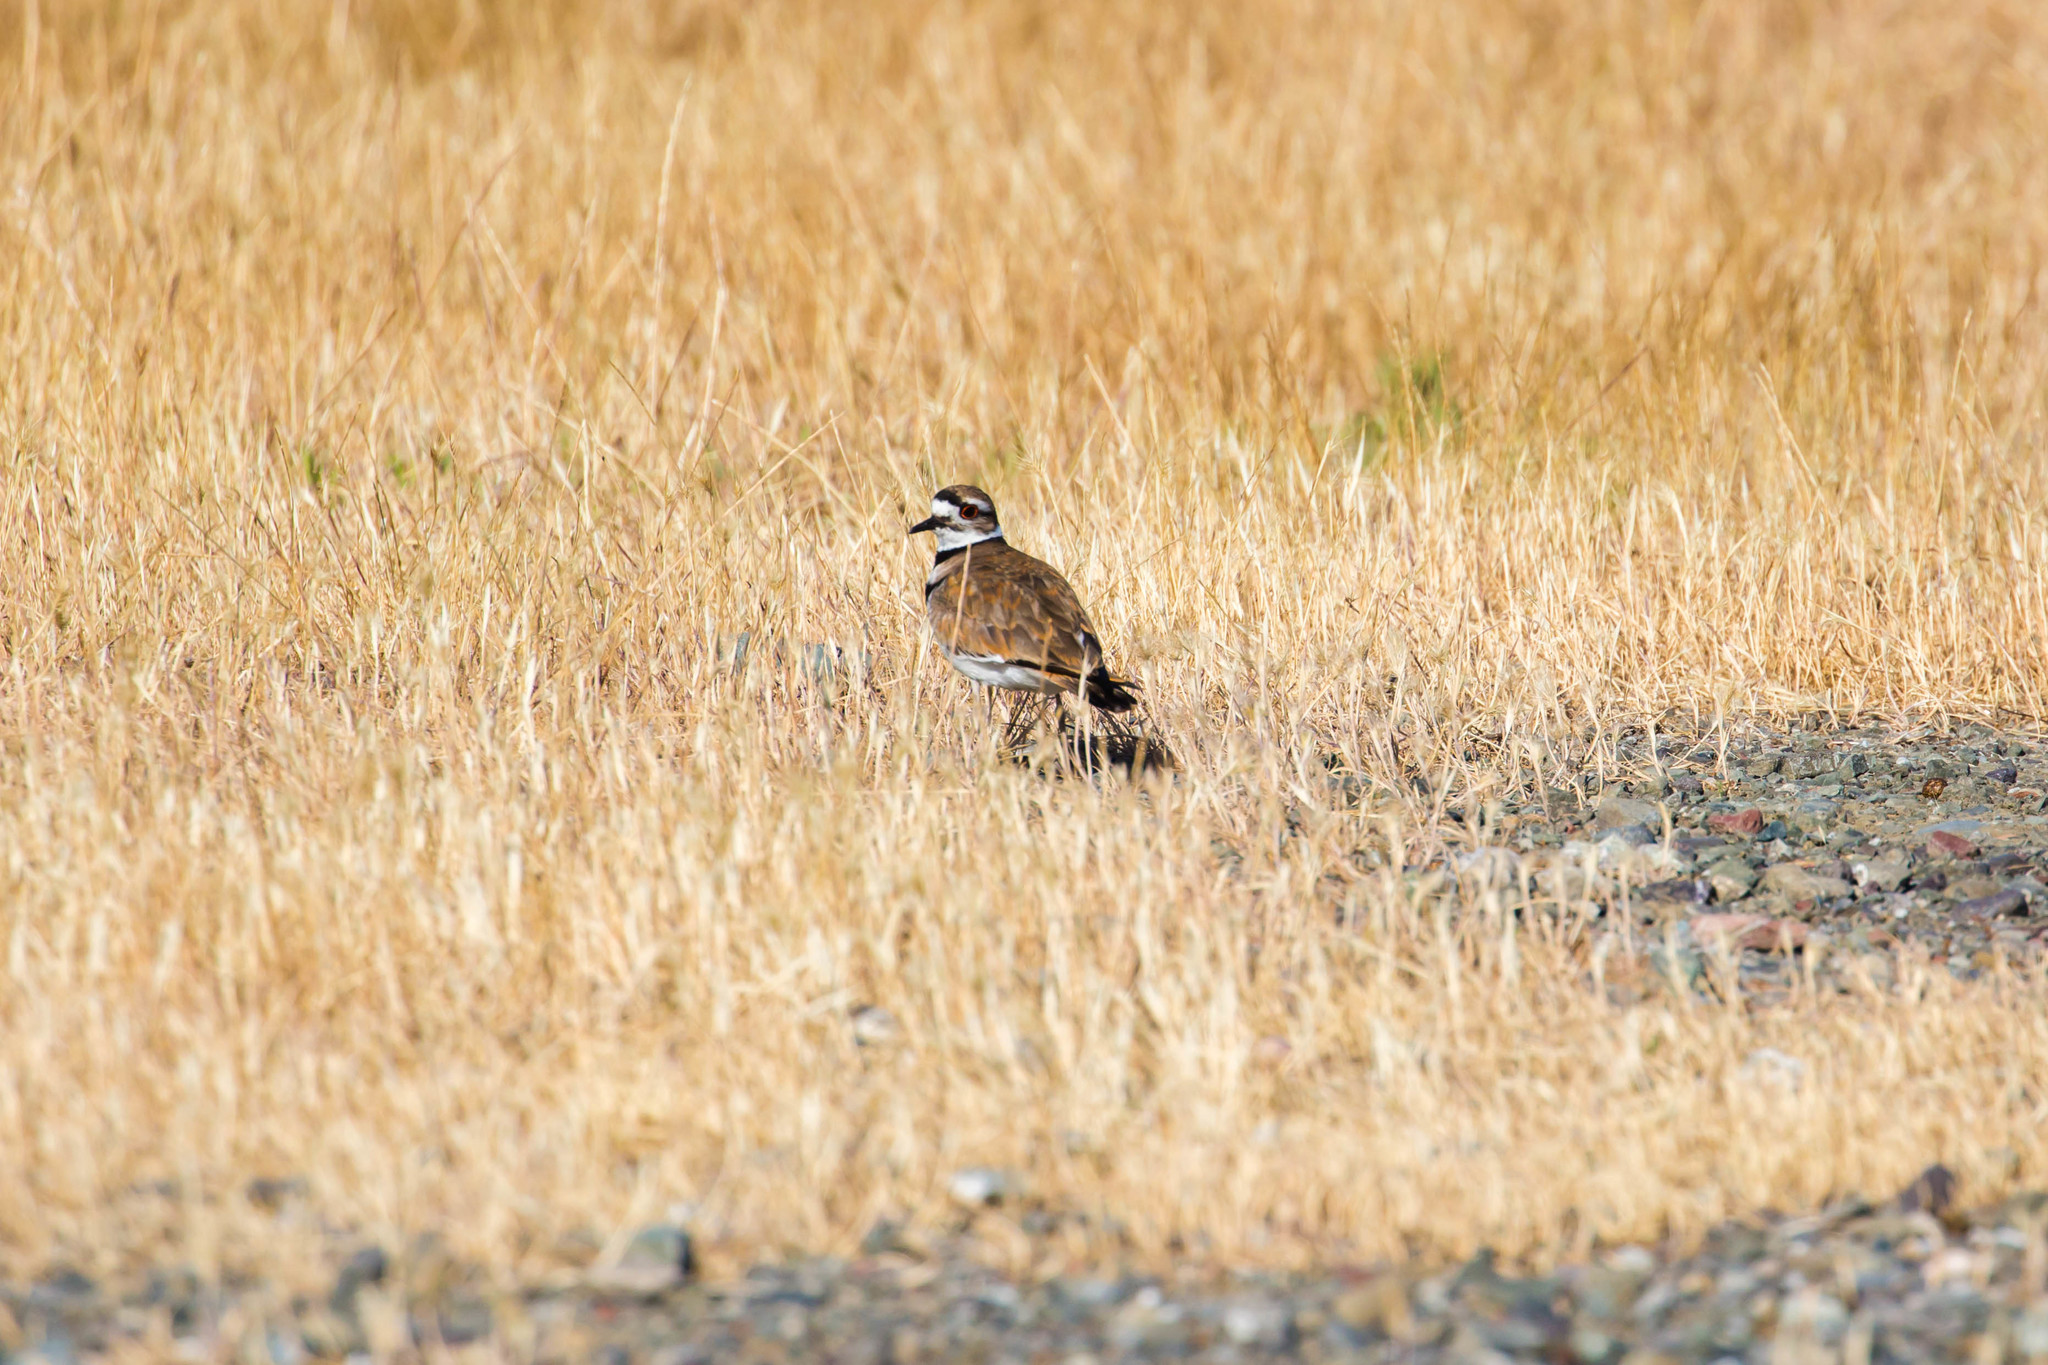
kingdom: Animalia
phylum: Chordata
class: Aves
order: Charadriiformes
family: Charadriidae
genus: Charadrius
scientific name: Charadrius vociferus
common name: Killdeer
